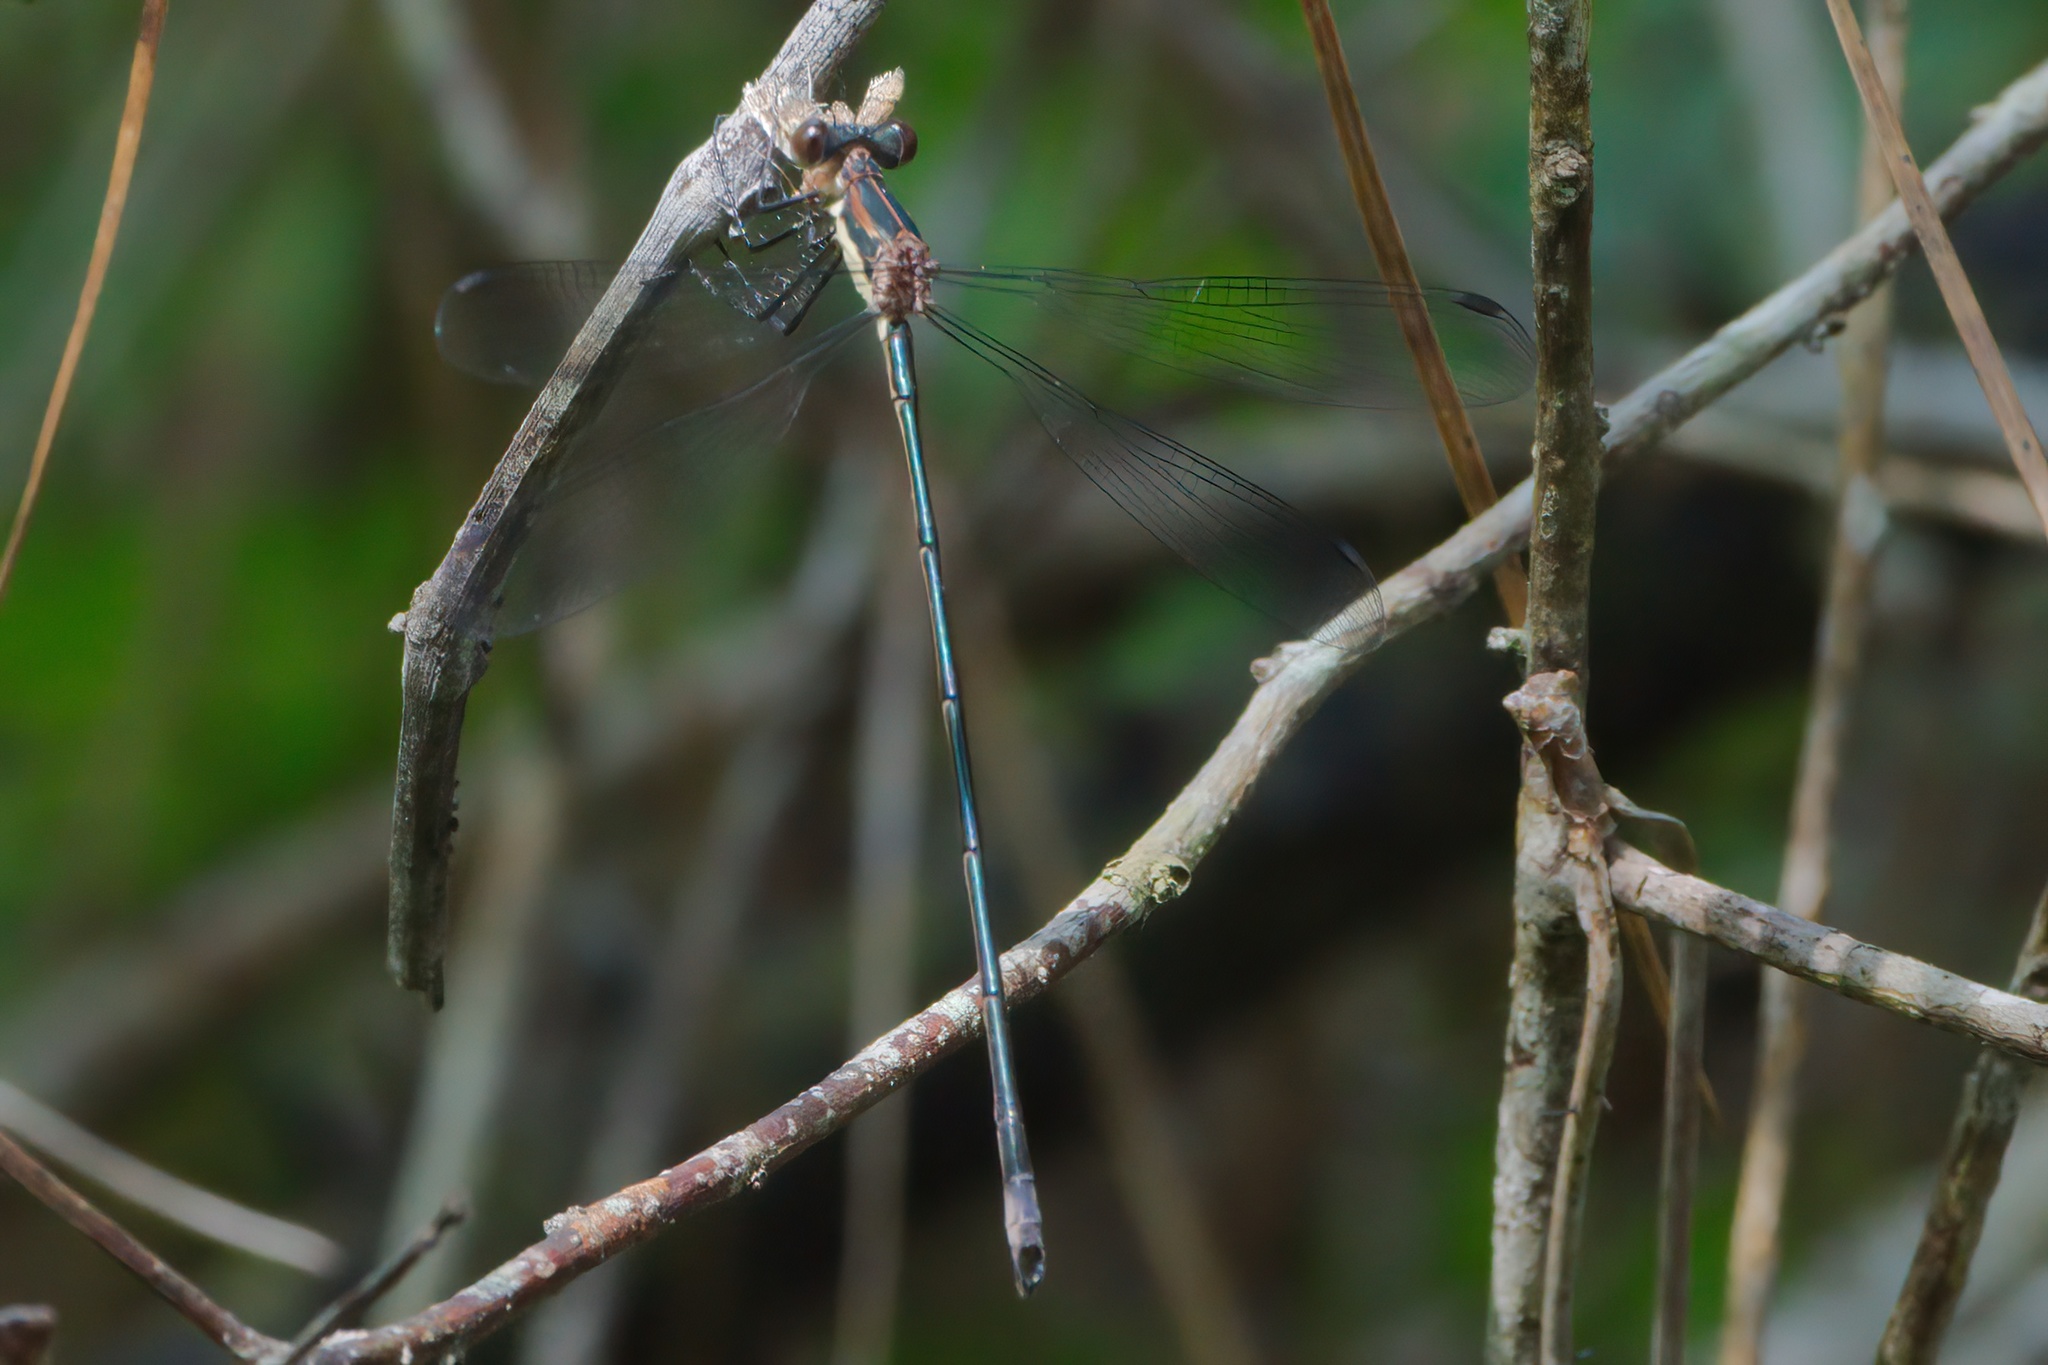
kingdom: Animalia
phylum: Arthropoda
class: Insecta
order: Odonata
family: Lestidae
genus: Lestes
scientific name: Lestes vigilax
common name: Swamp spreadwing
